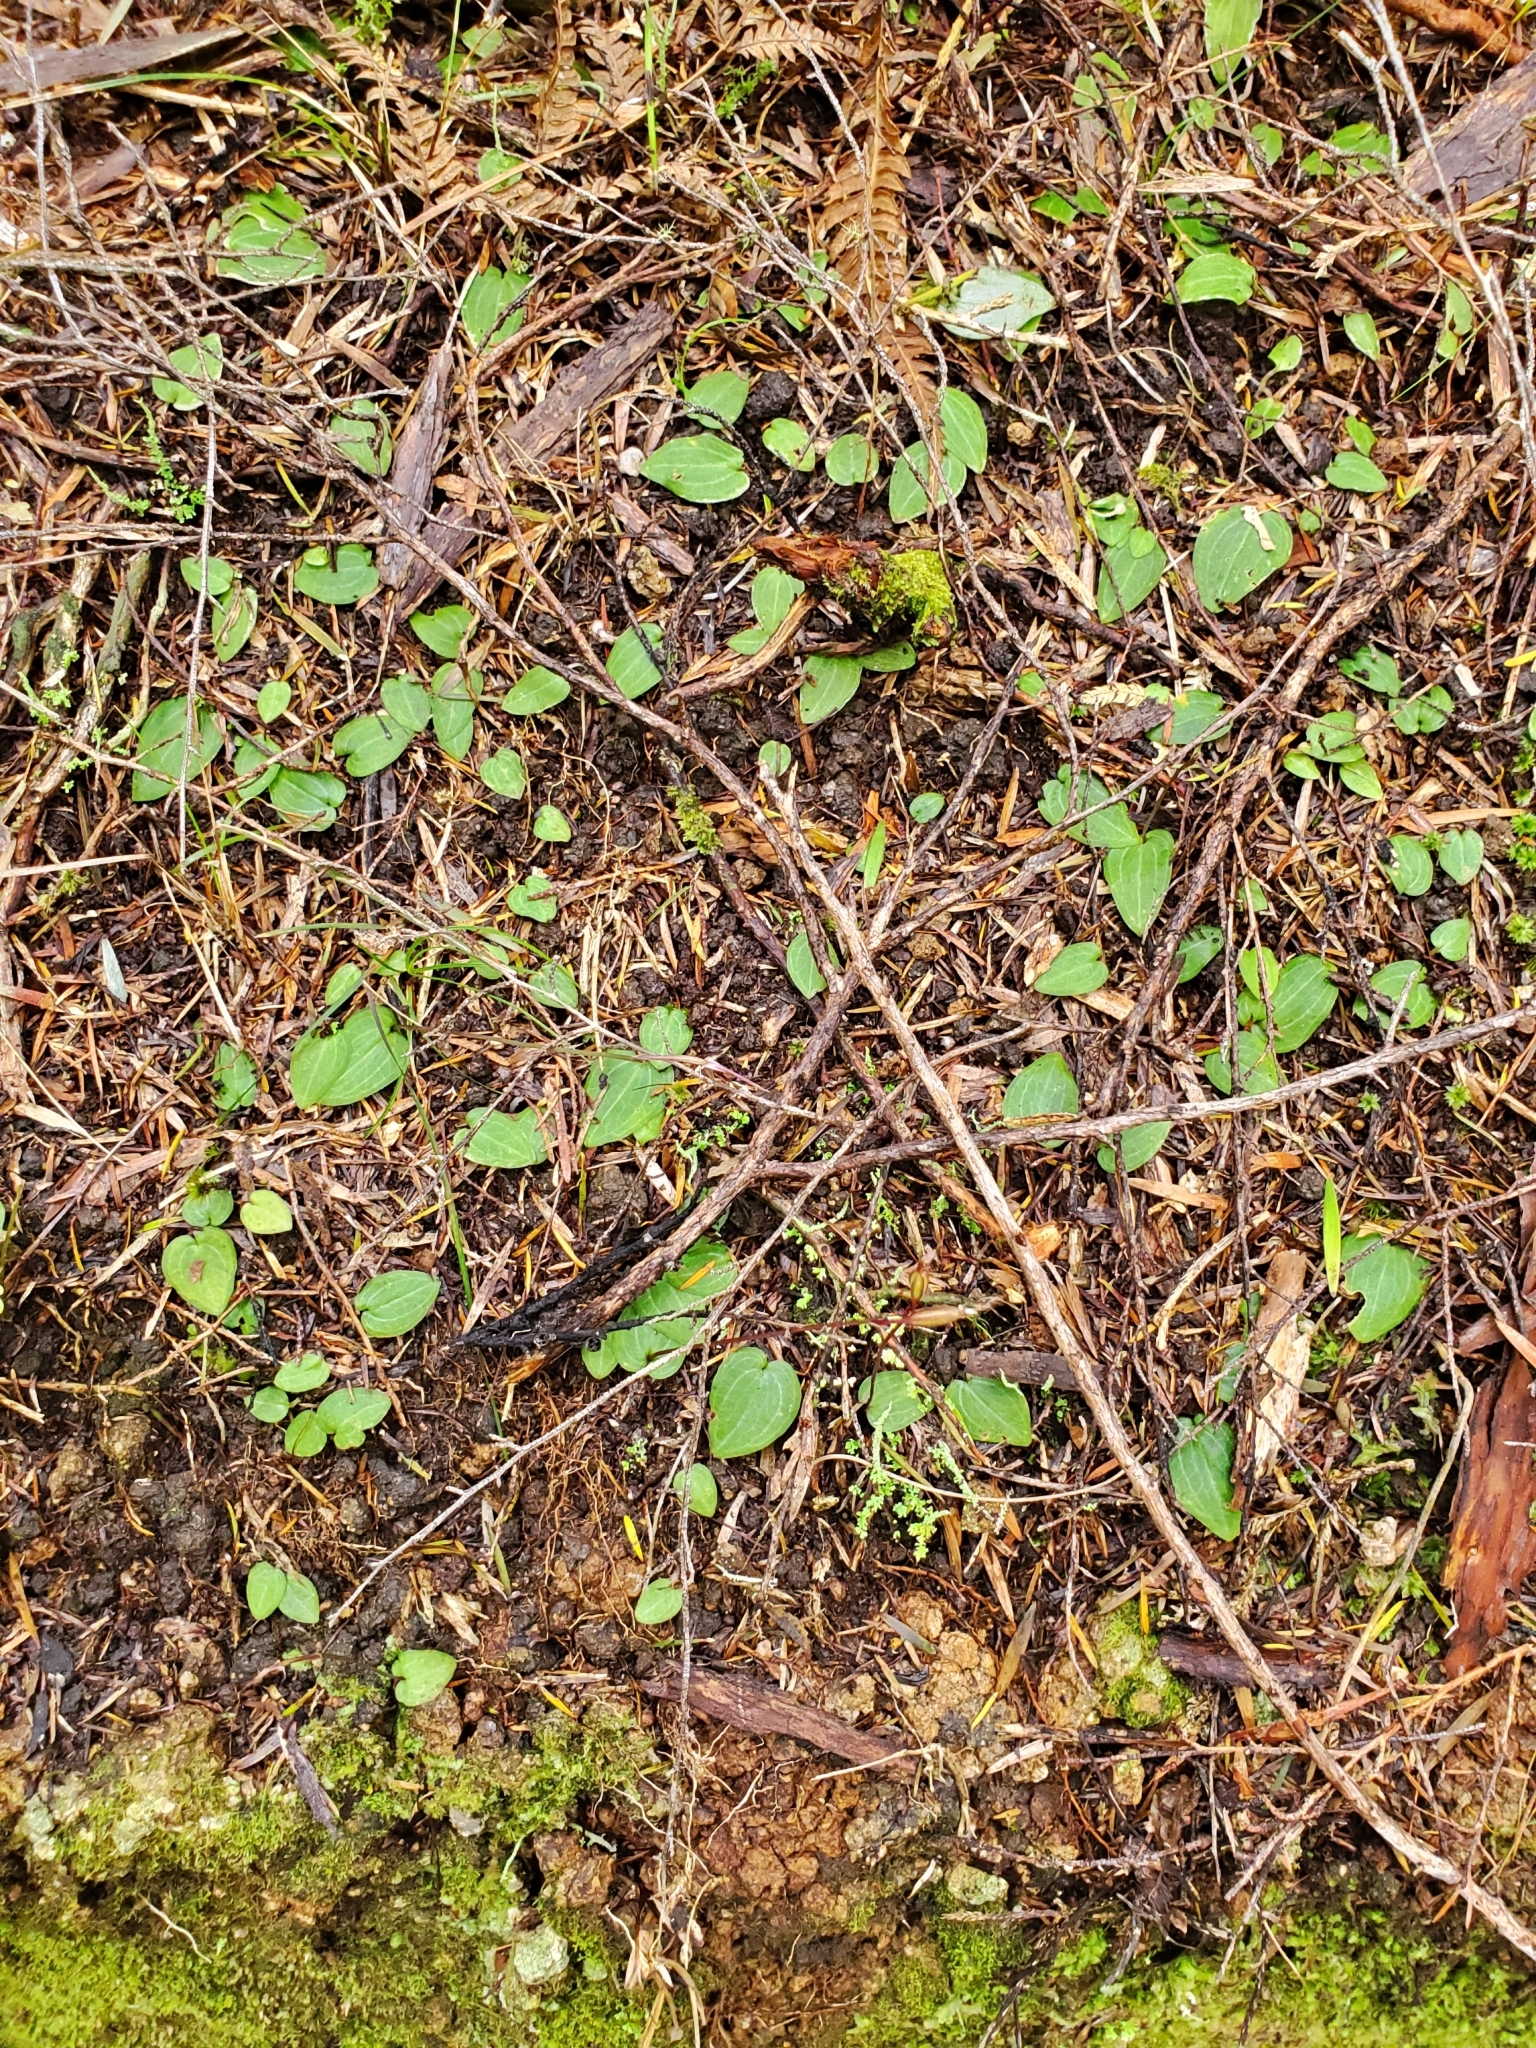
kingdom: Plantae
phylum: Tracheophyta
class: Liliopsida
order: Asparagales
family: Orchidaceae
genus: Cyrtostylis
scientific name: Cyrtostylis rotundifolia
